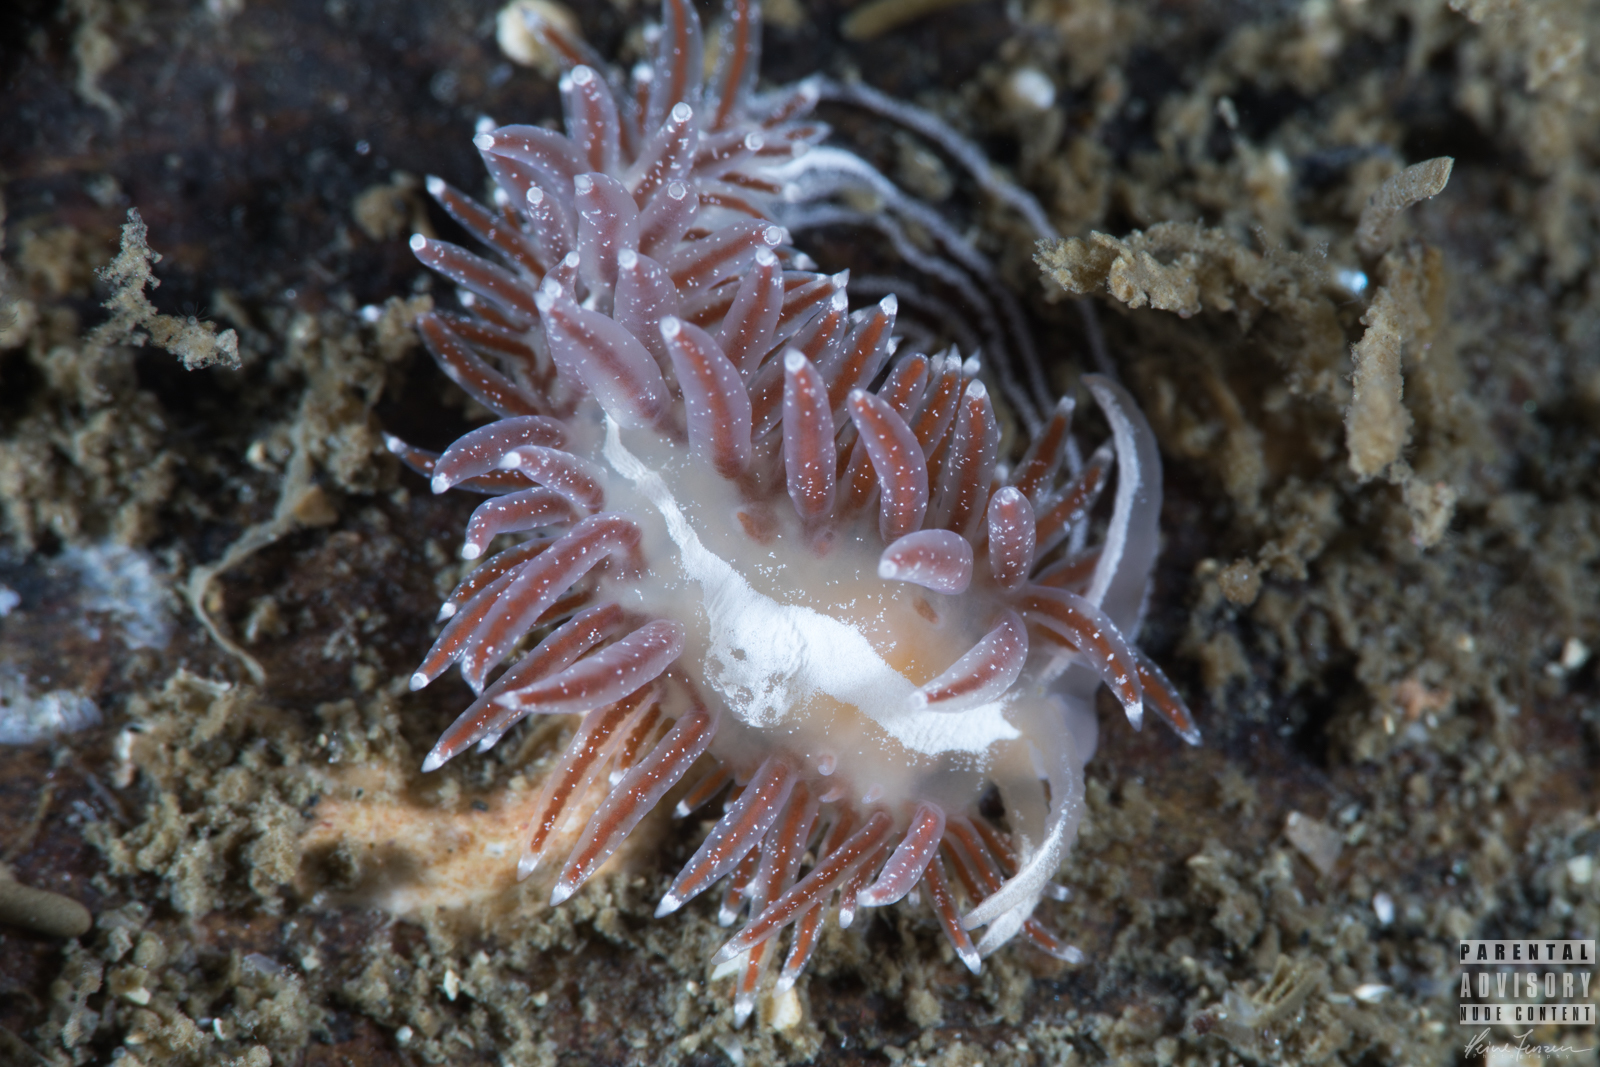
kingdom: Animalia
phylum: Mollusca
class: Gastropoda
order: Nudibranchia
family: Coryphellidae
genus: Coryphella
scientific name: Coryphella monicae
